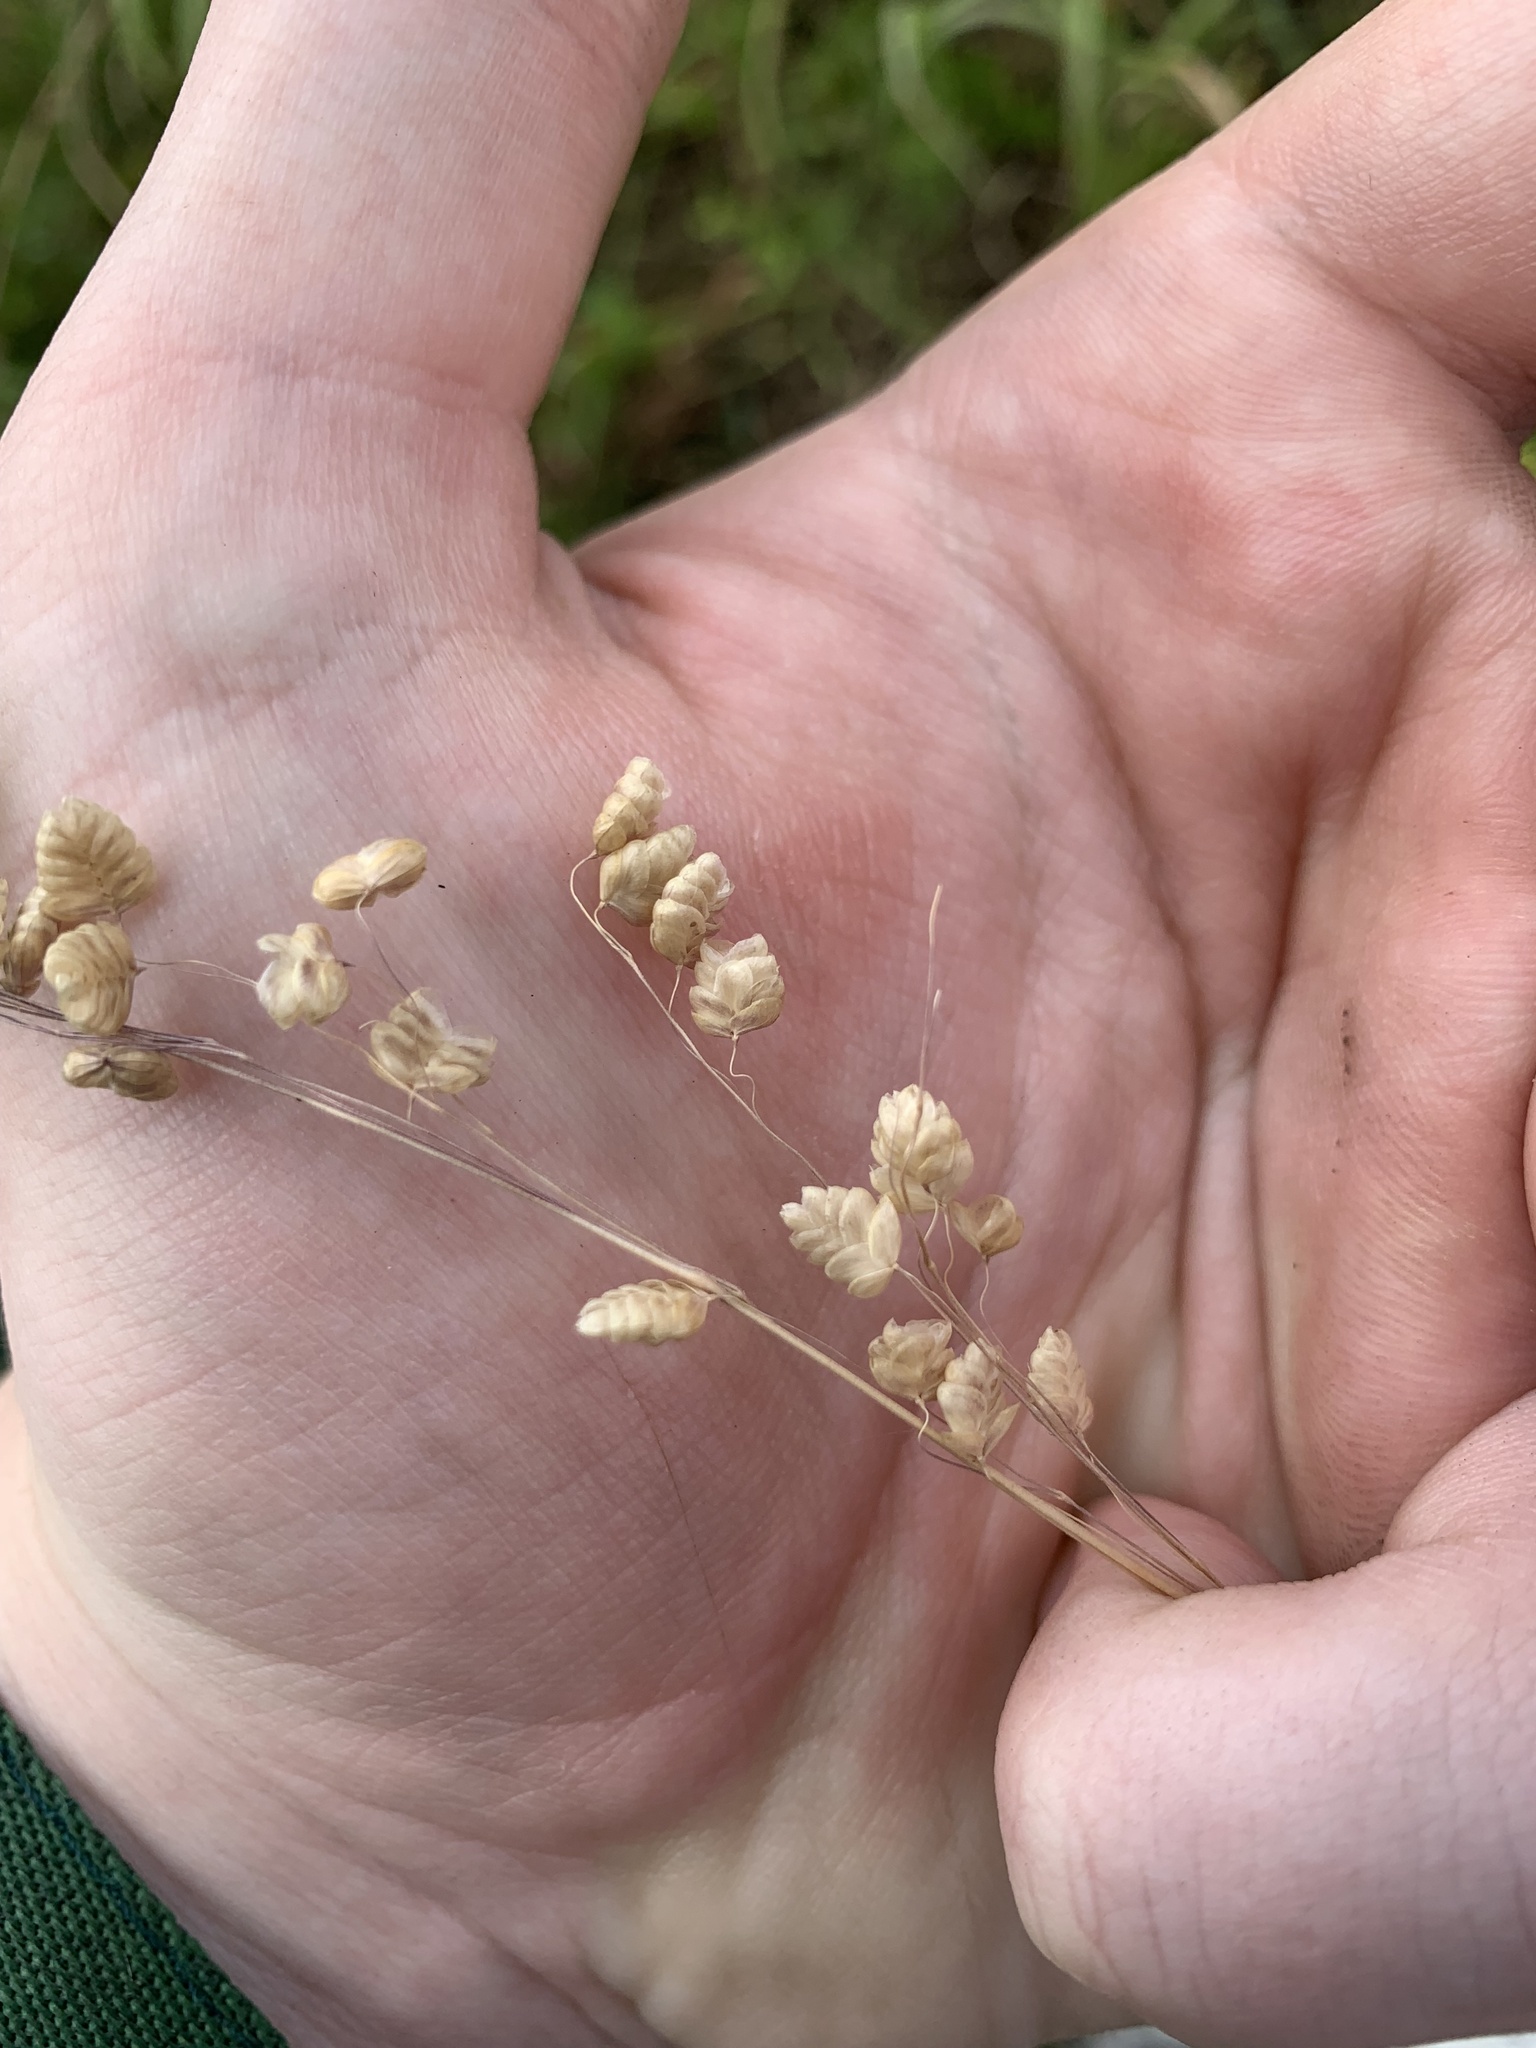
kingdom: Plantae
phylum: Tracheophyta
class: Liliopsida
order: Poales
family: Poaceae
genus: Briza
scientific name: Briza media
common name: Quaking grass
